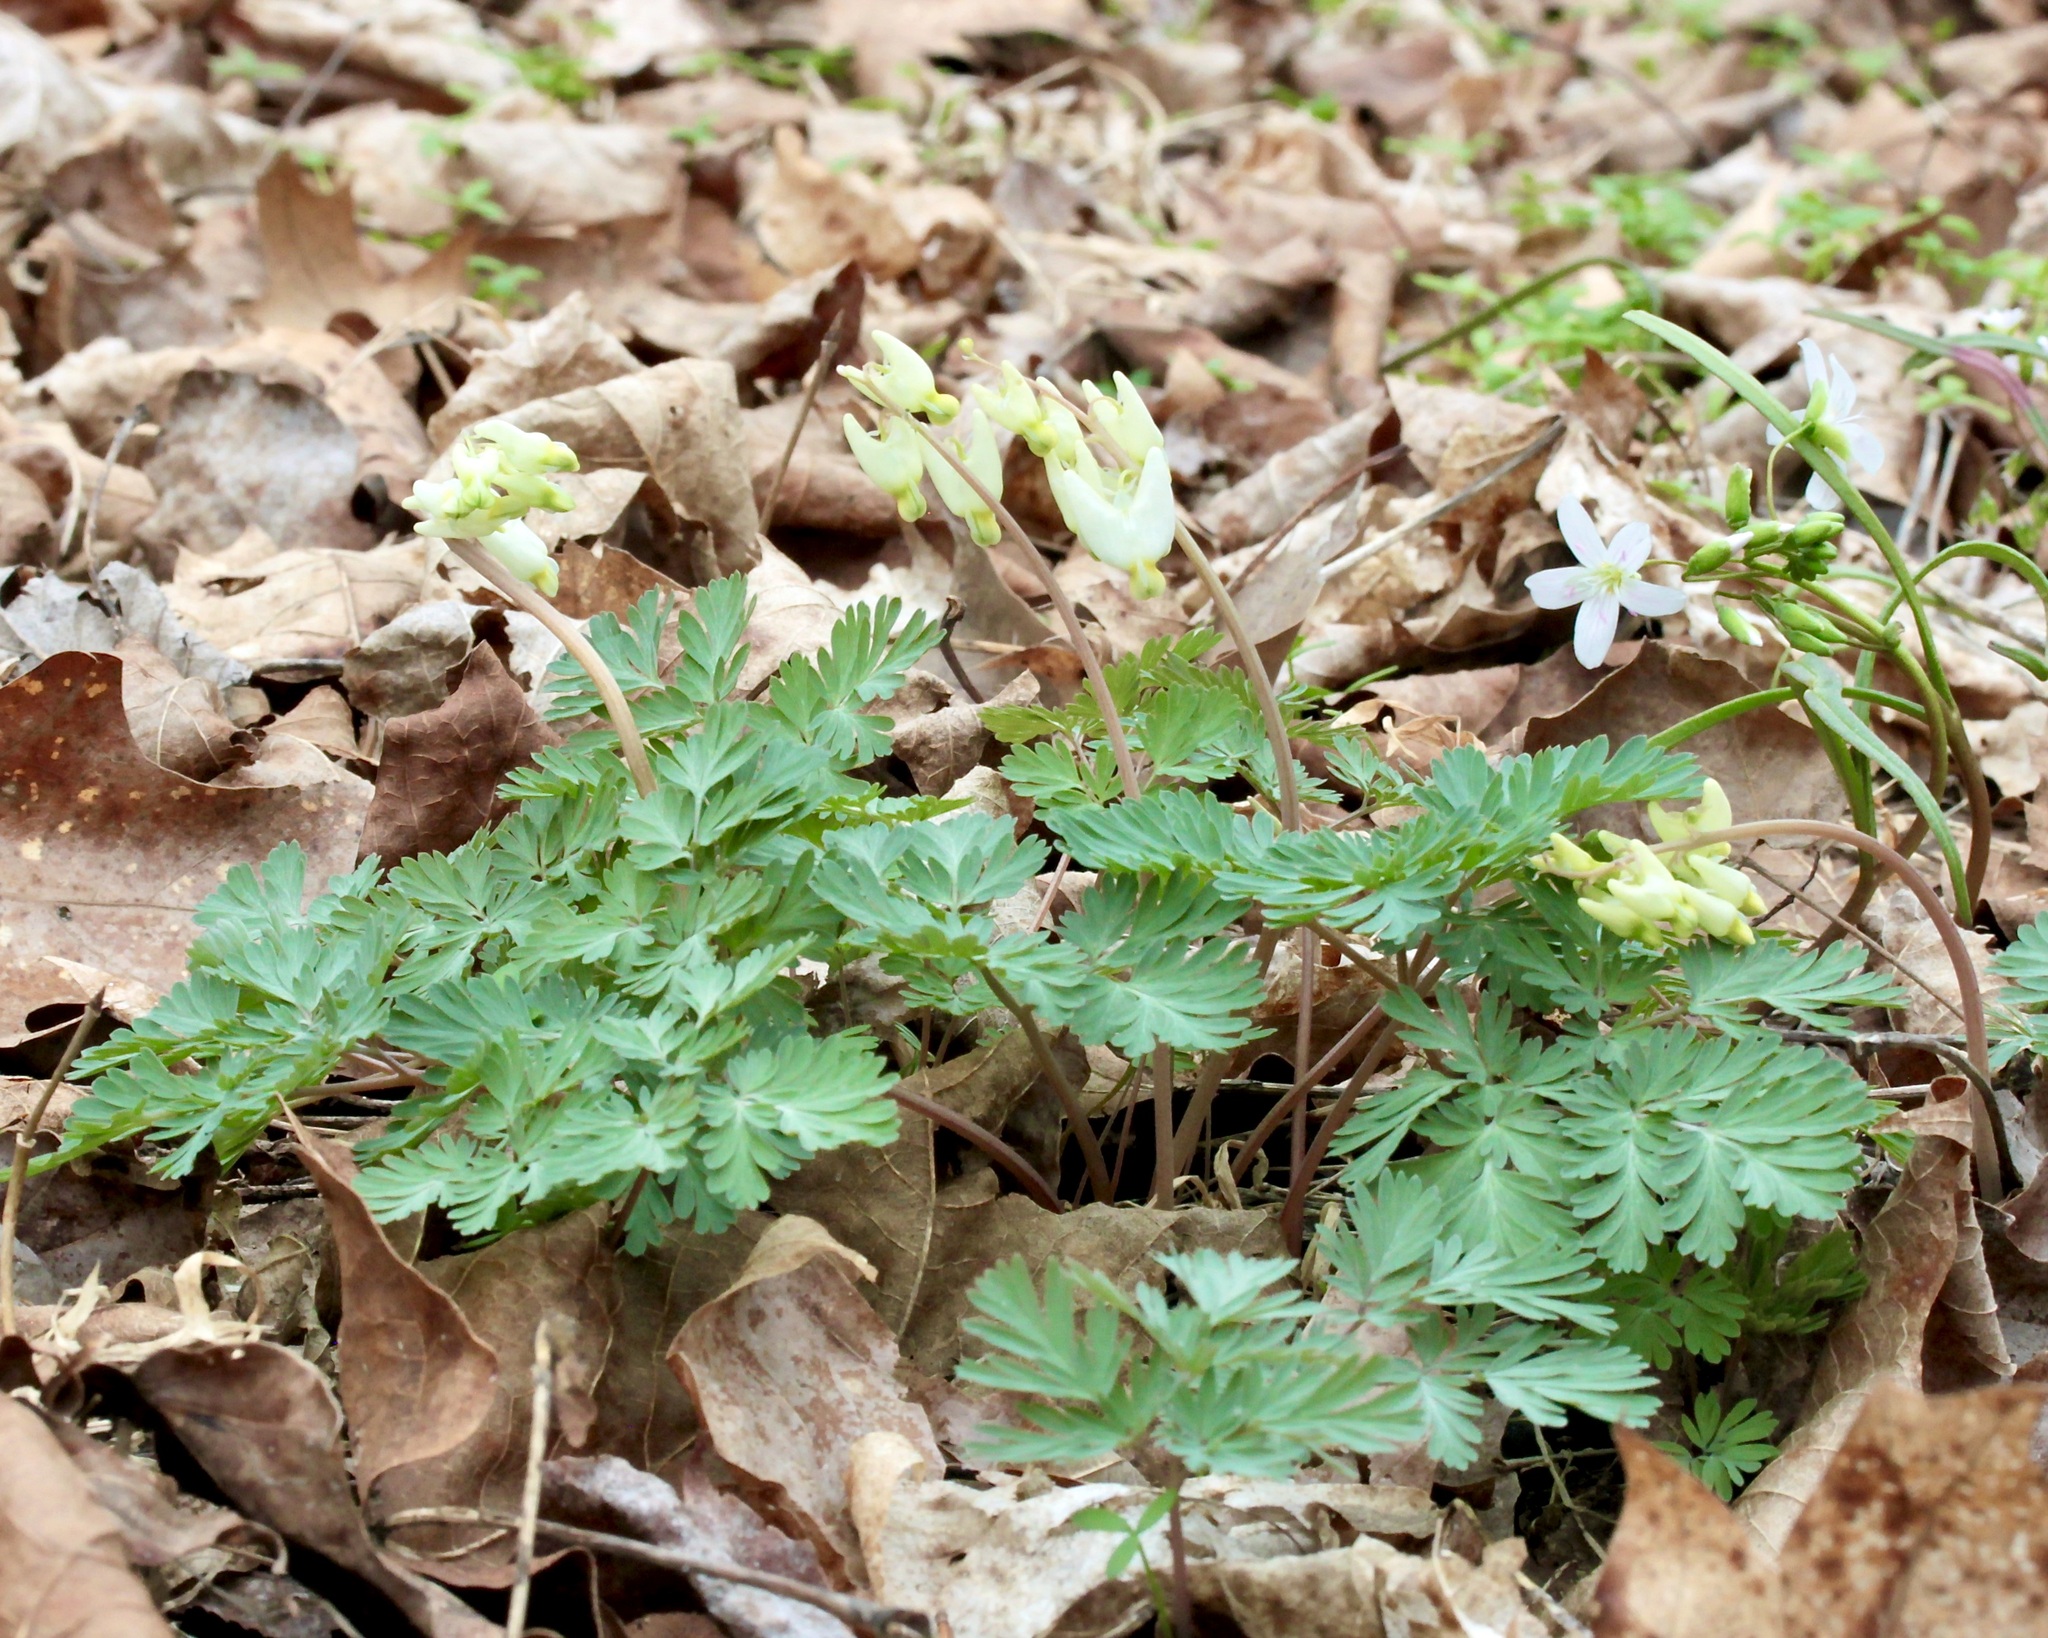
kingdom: Plantae
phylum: Tracheophyta
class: Magnoliopsida
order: Ranunculales
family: Papaveraceae
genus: Dicentra
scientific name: Dicentra cucullaria
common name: Dutchman's breeches
